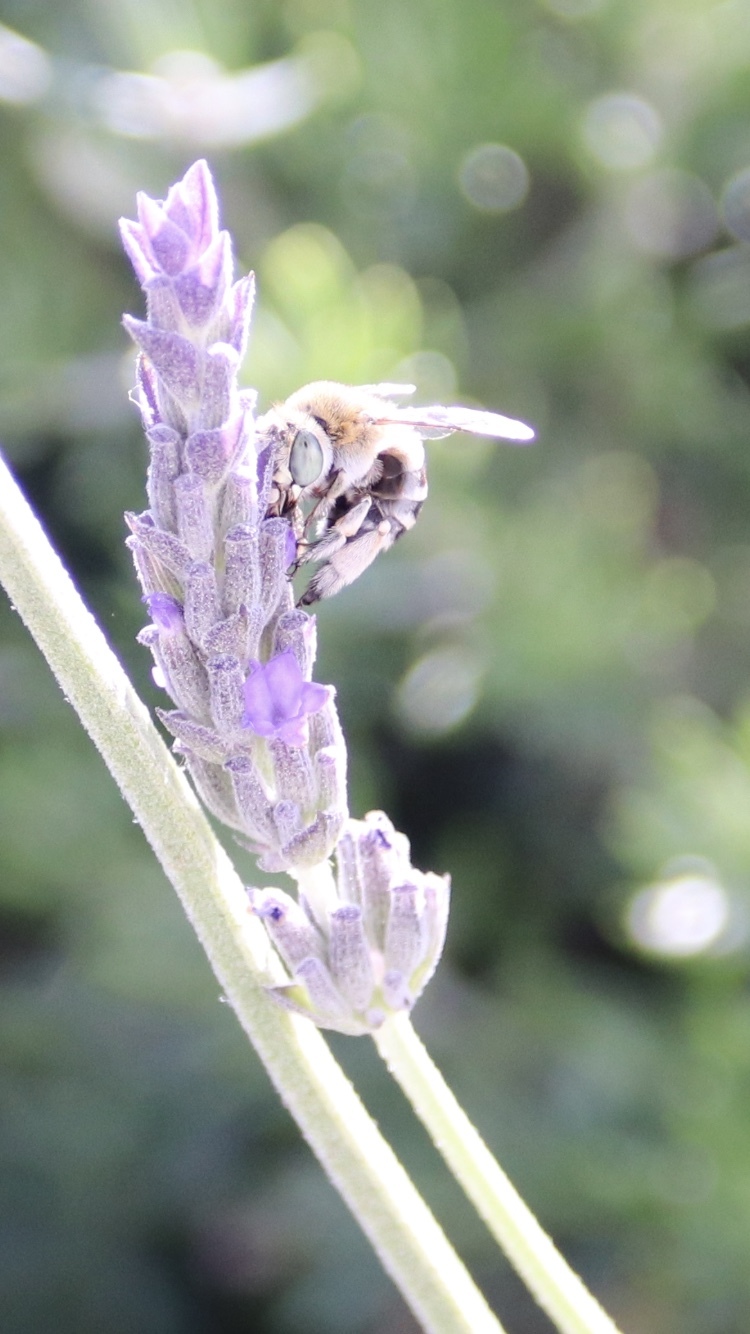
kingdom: Animalia
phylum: Arthropoda
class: Insecta
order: Hymenoptera
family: Apidae
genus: Amegilla
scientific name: Amegilla albigena
